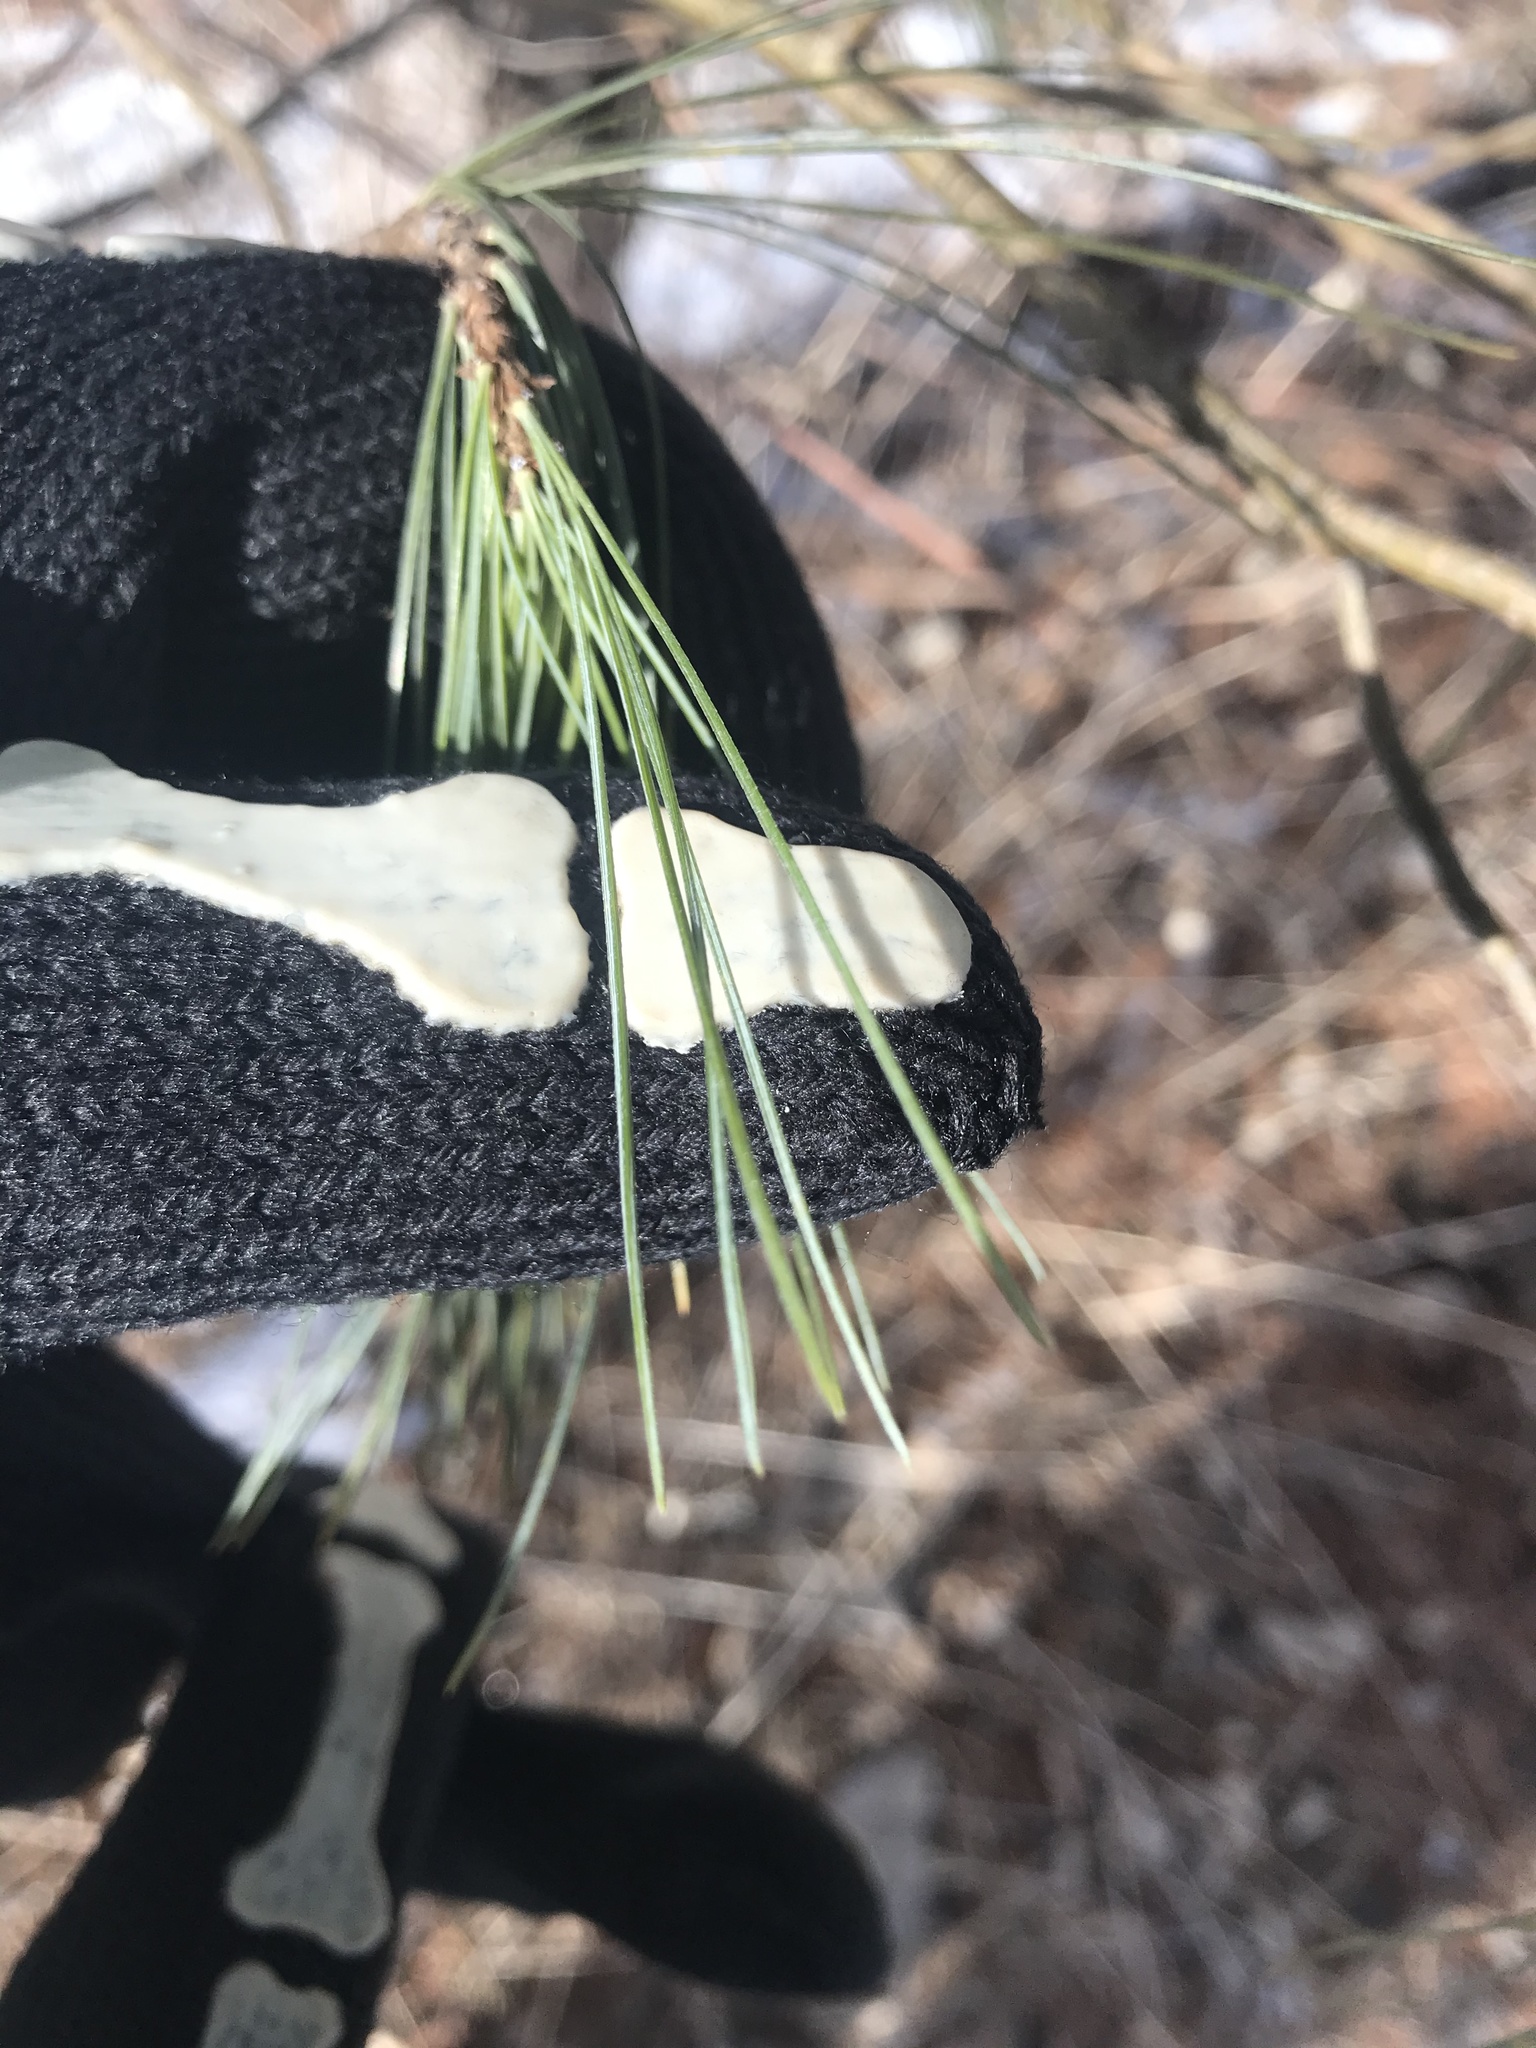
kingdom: Plantae
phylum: Tracheophyta
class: Pinopsida
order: Pinales
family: Pinaceae
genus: Pinus
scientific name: Pinus strobus
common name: Weymouth pine
